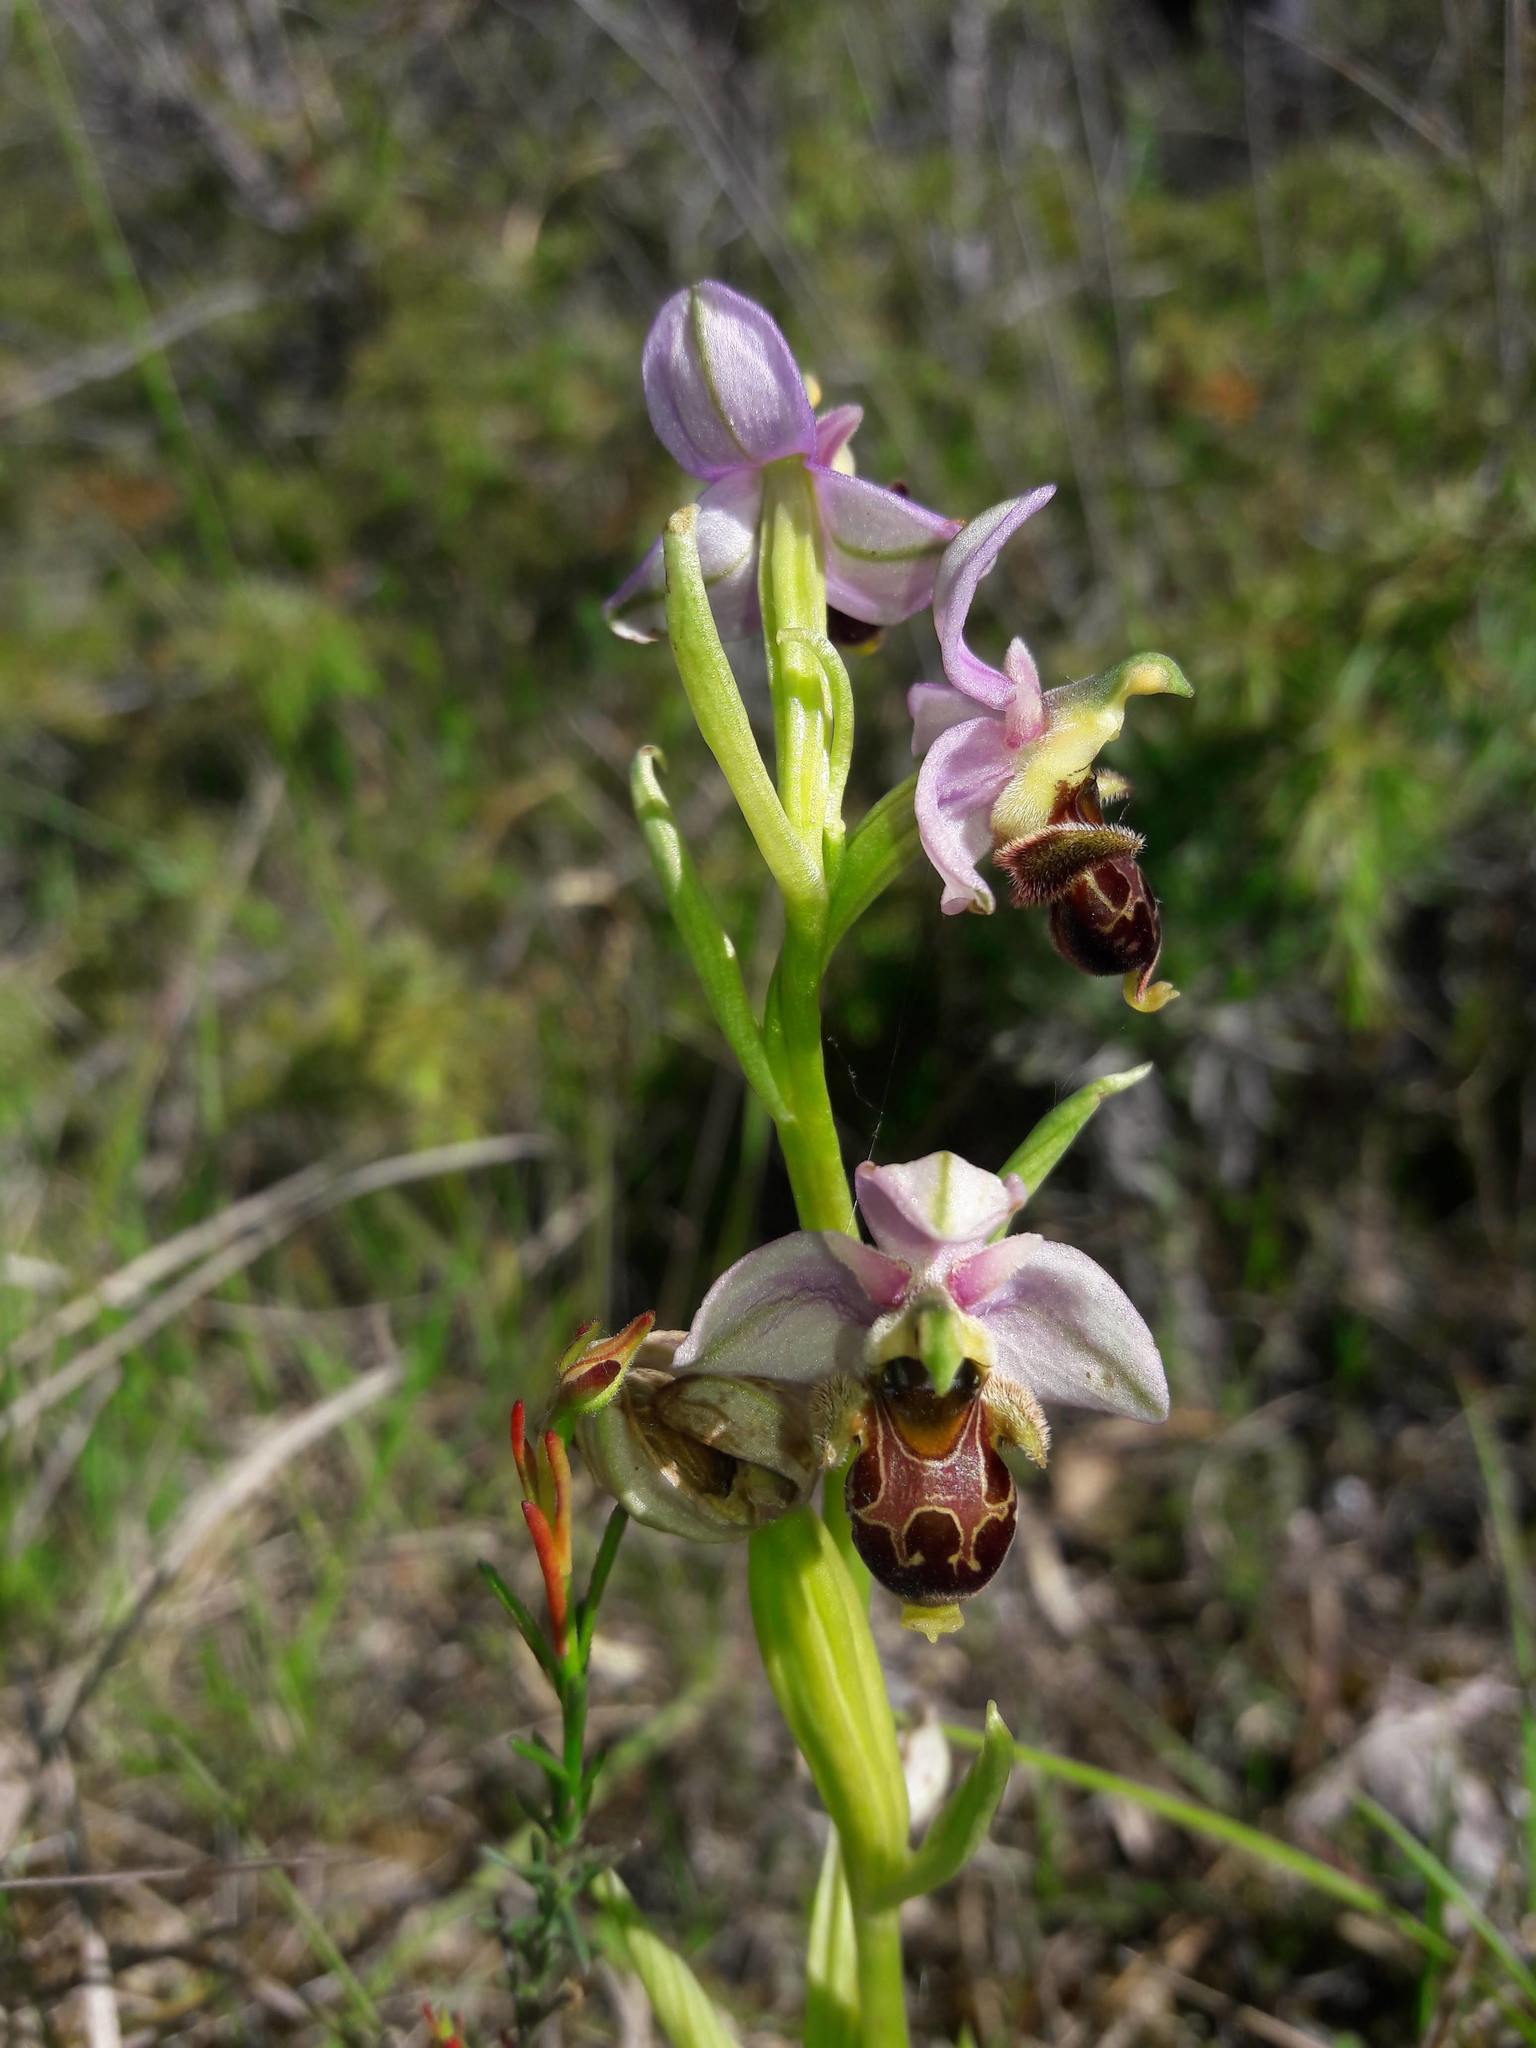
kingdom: Plantae
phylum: Tracheophyta
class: Liliopsida
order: Asparagales
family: Orchidaceae
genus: Ophrys
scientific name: Ophrys scolopax
